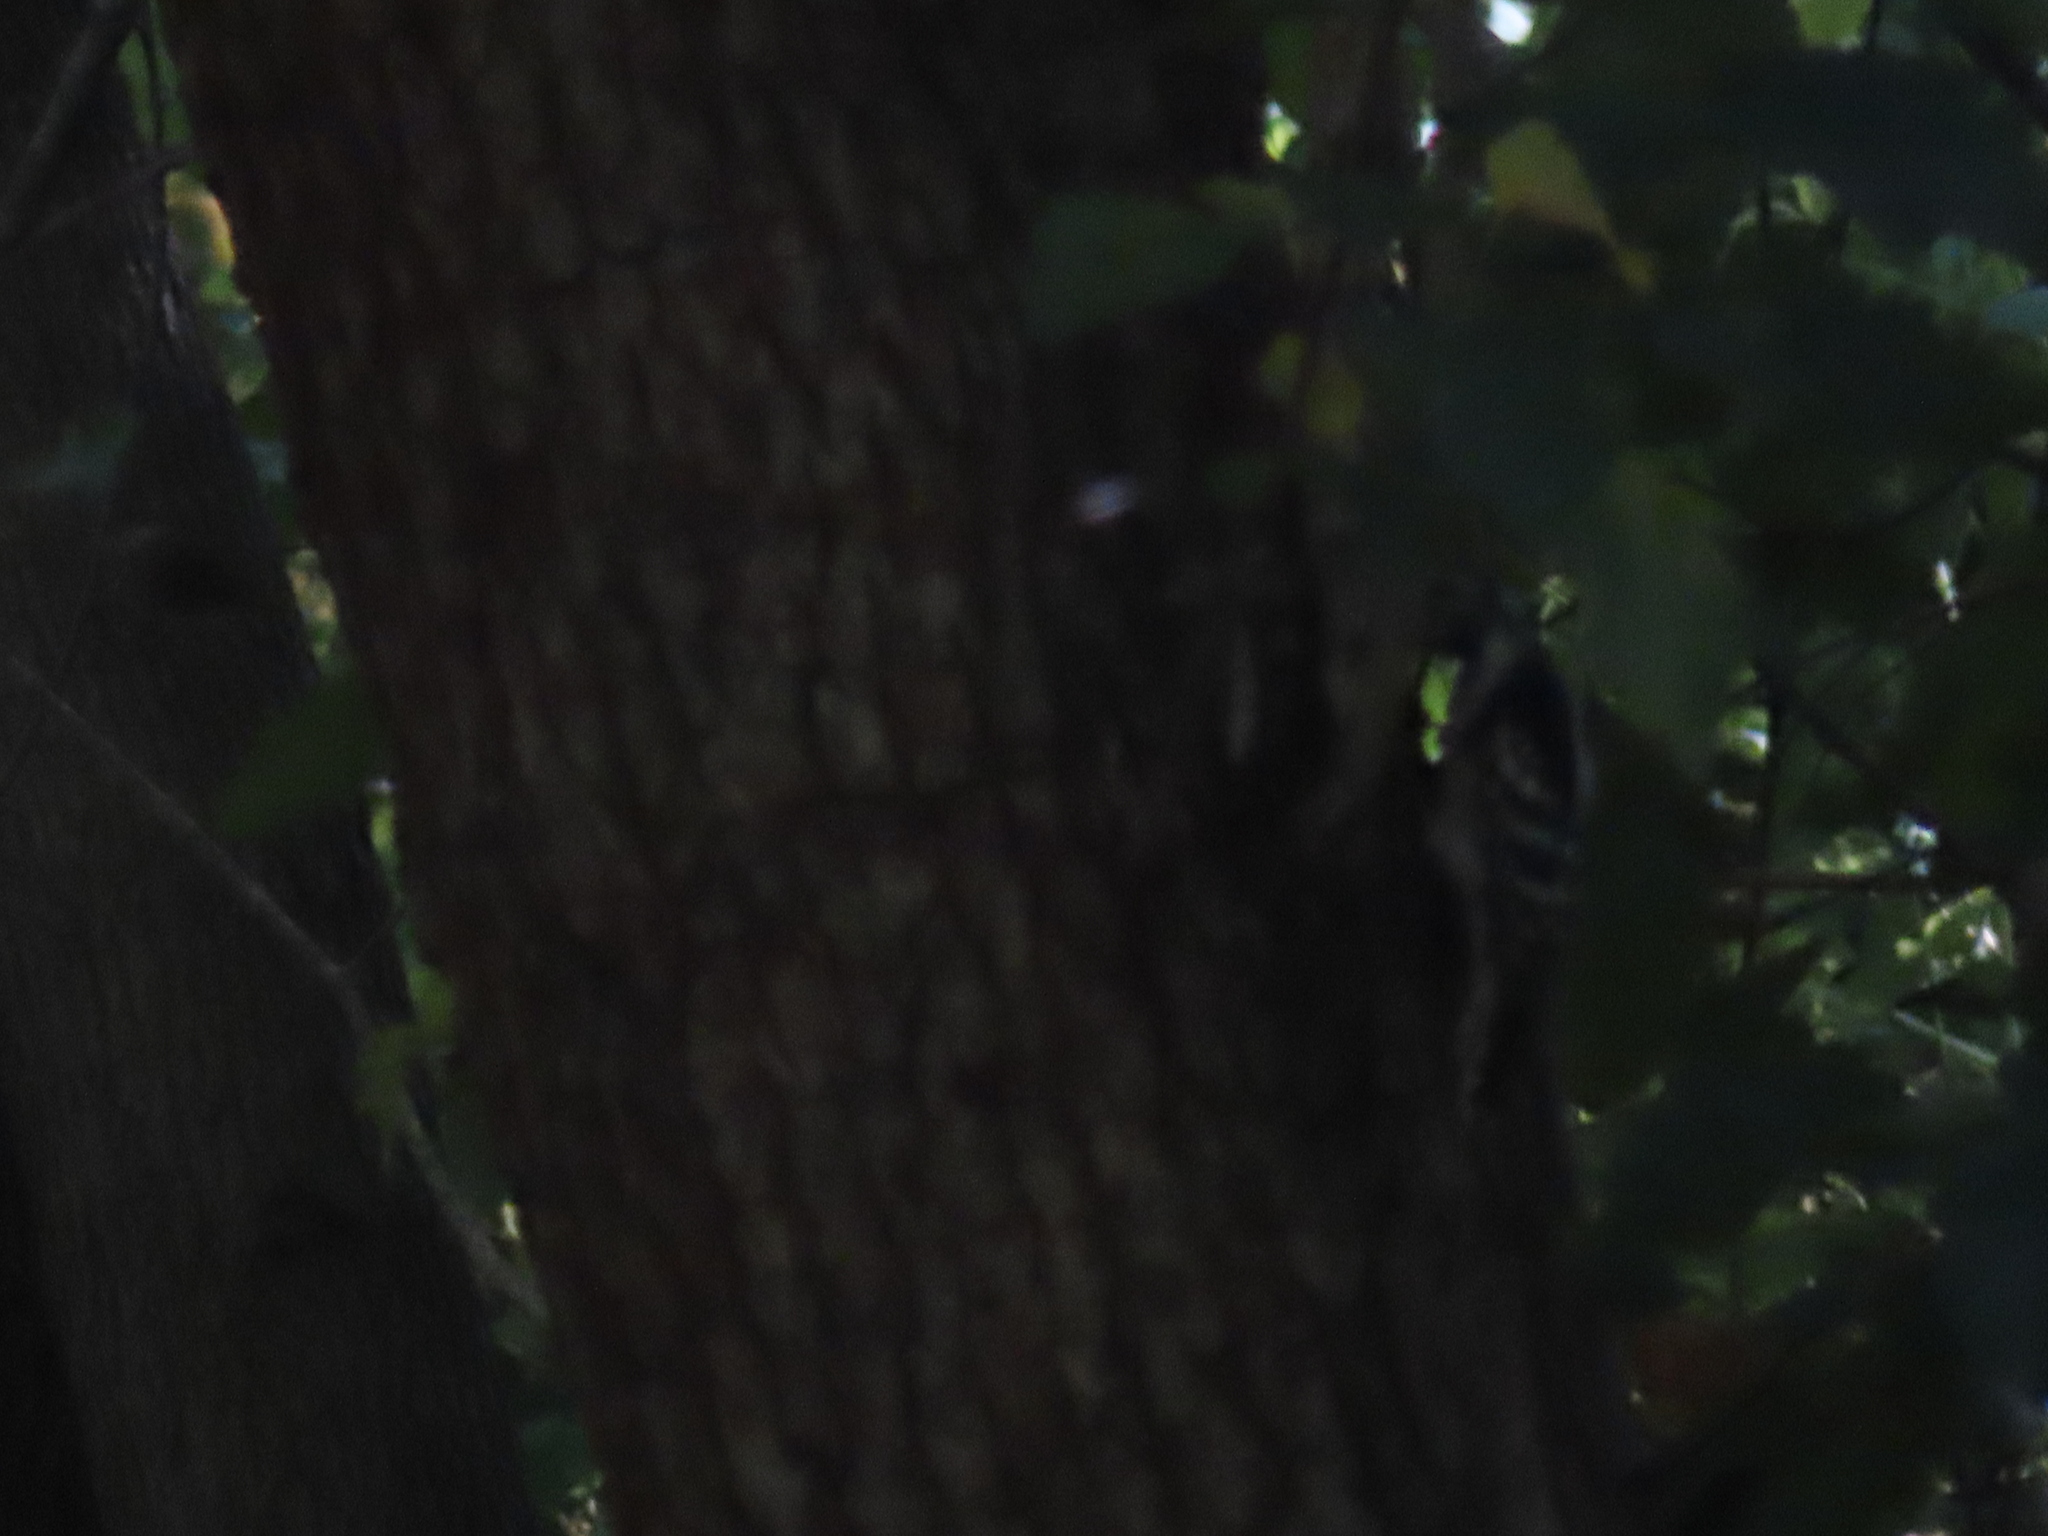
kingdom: Animalia
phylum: Chordata
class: Aves
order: Piciformes
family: Picidae
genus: Dryobates
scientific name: Dryobates pubescens
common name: Downy woodpecker
